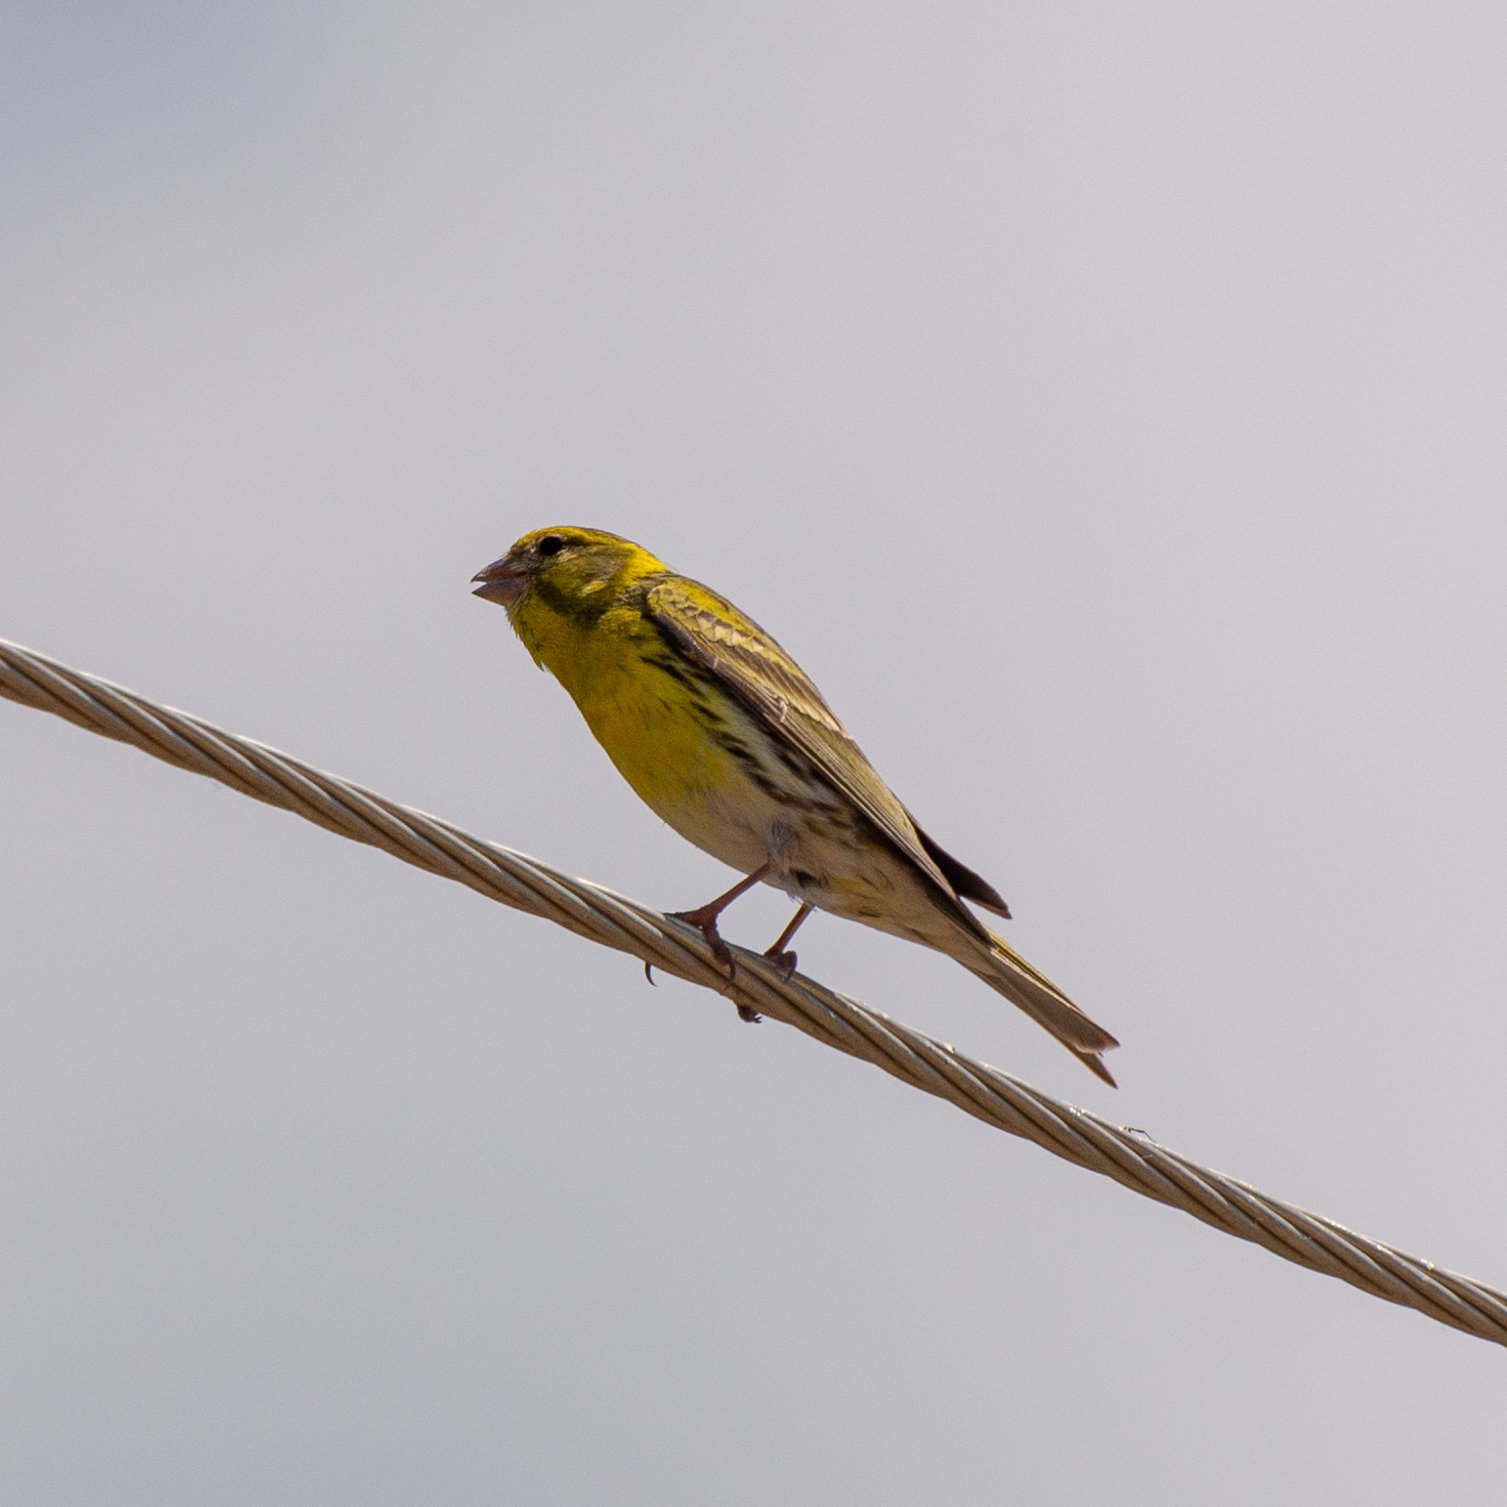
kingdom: Animalia
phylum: Chordata
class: Aves
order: Passeriformes
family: Fringillidae
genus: Serinus
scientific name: Serinus serinus
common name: European serin
